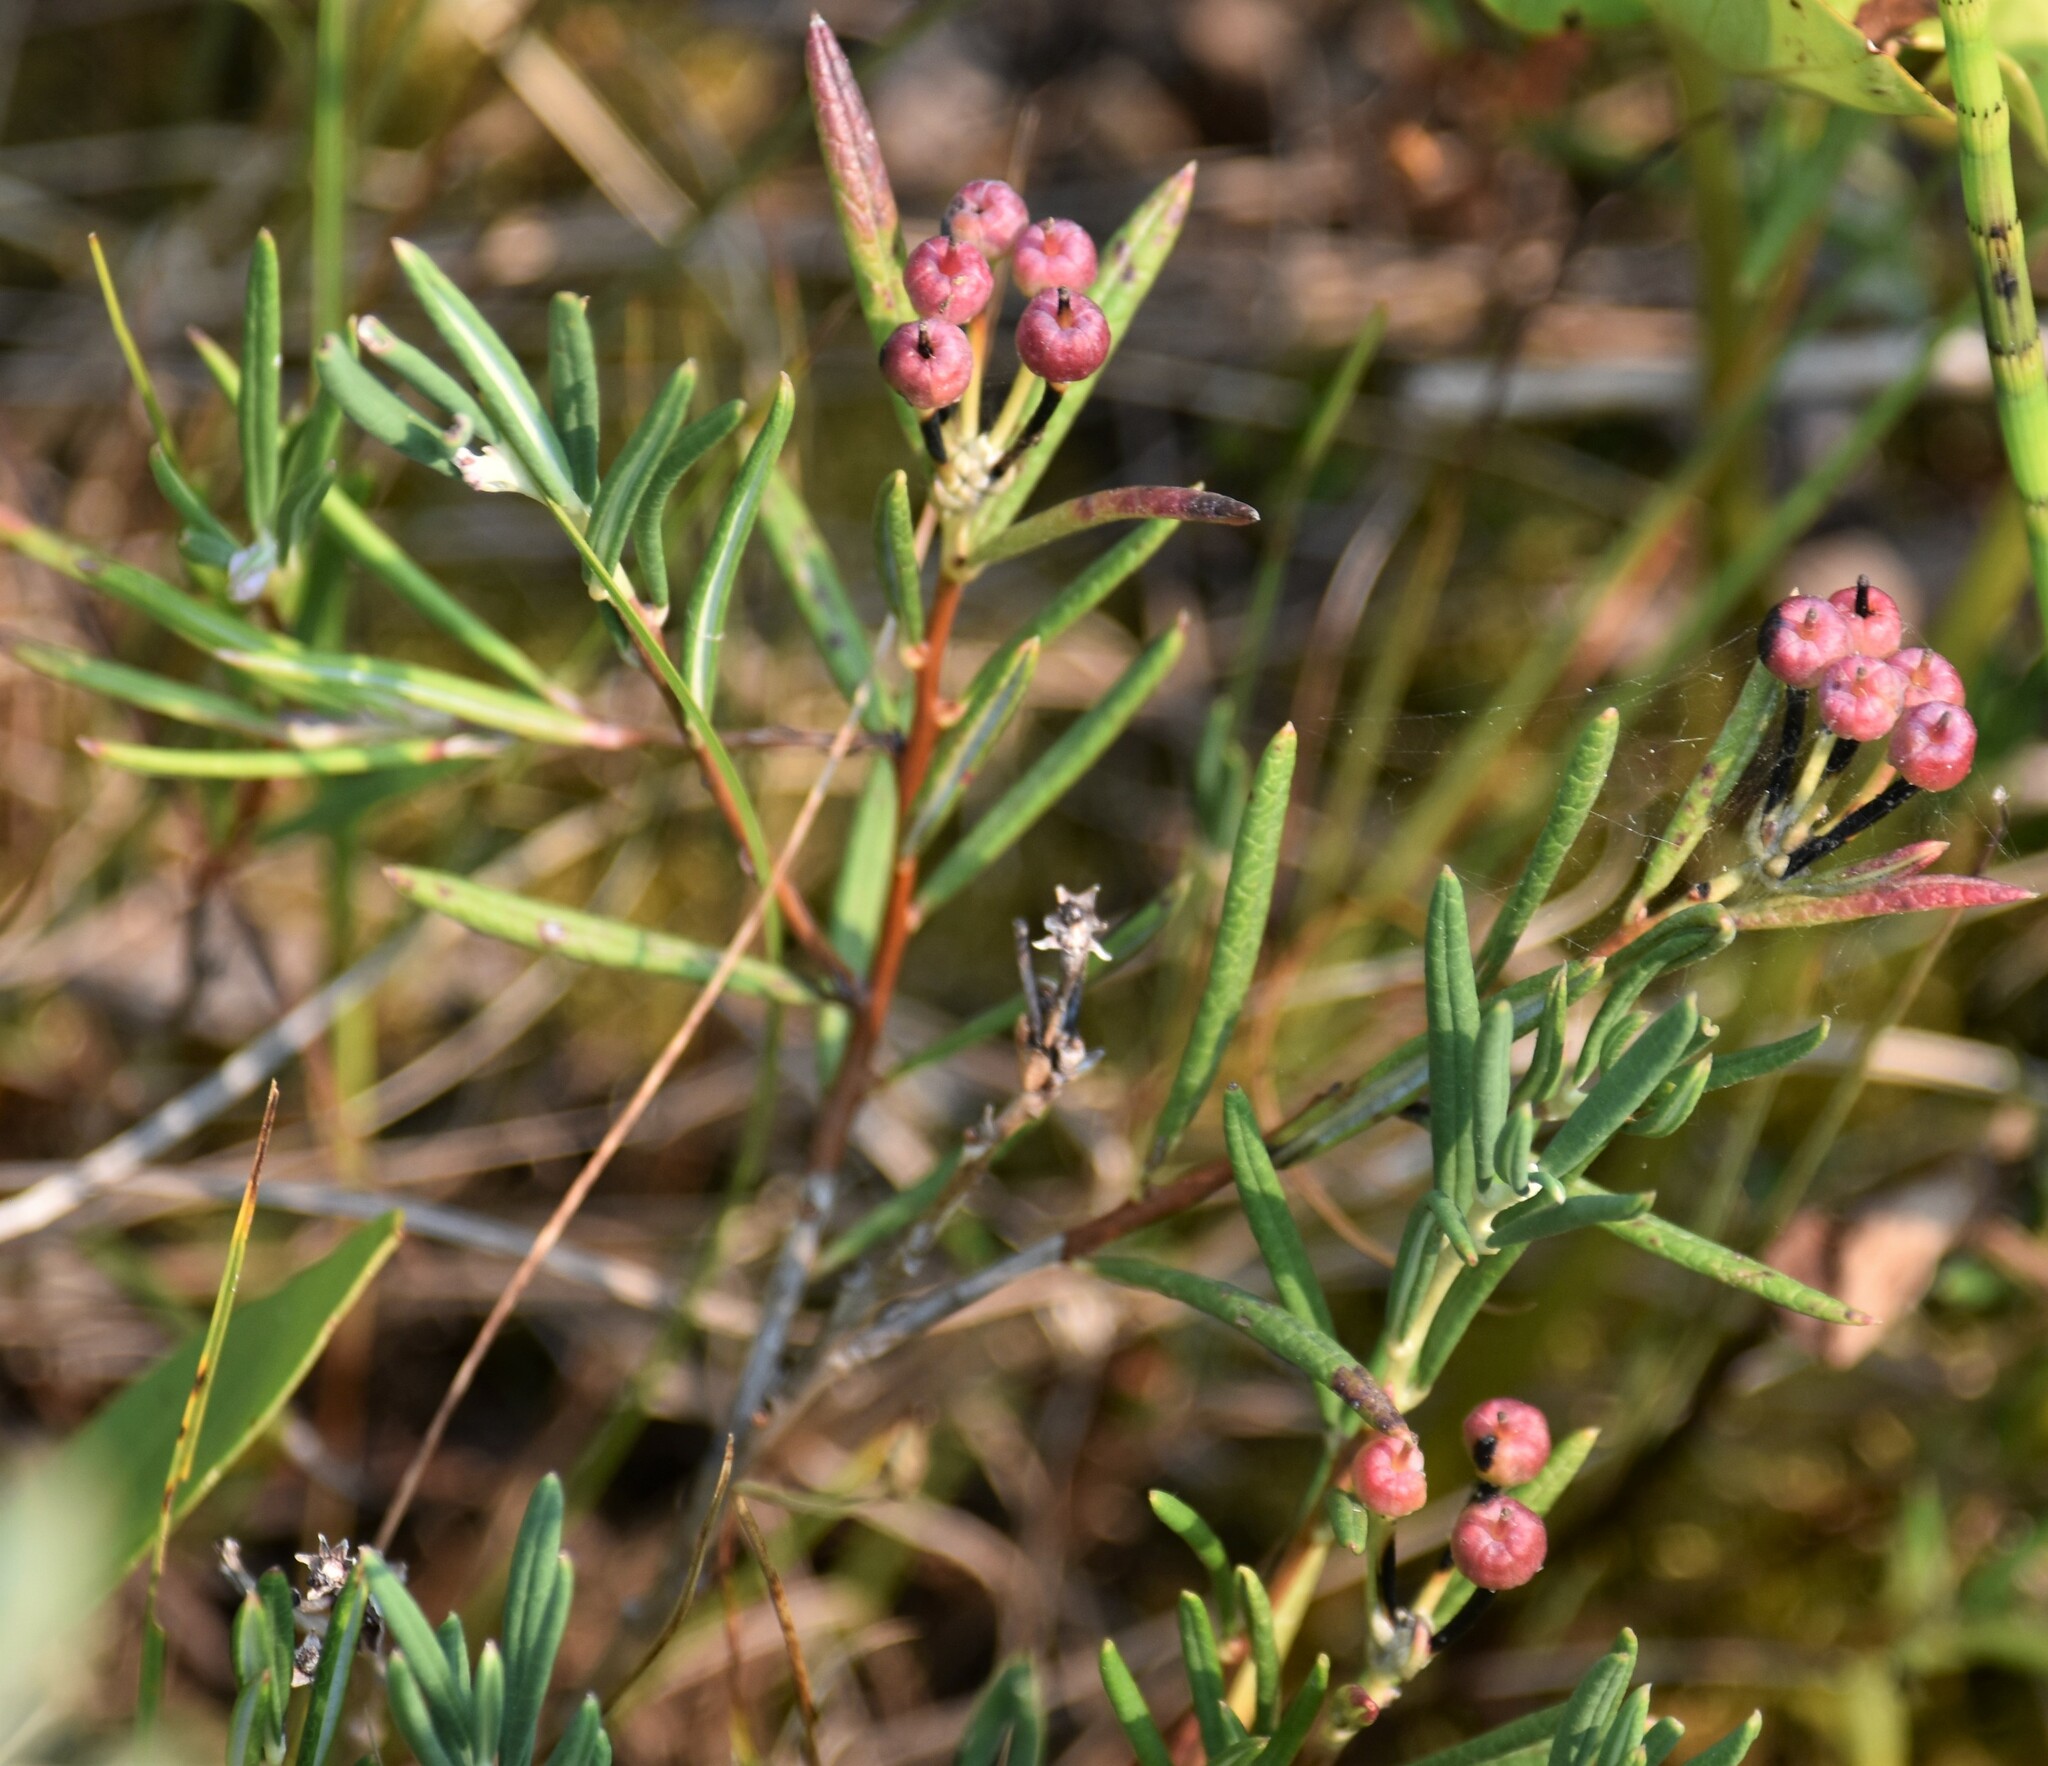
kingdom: Plantae
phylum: Tracheophyta
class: Magnoliopsida
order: Ericales
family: Ericaceae
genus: Andromeda
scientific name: Andromeda polifolia
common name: Bog-rosemary
